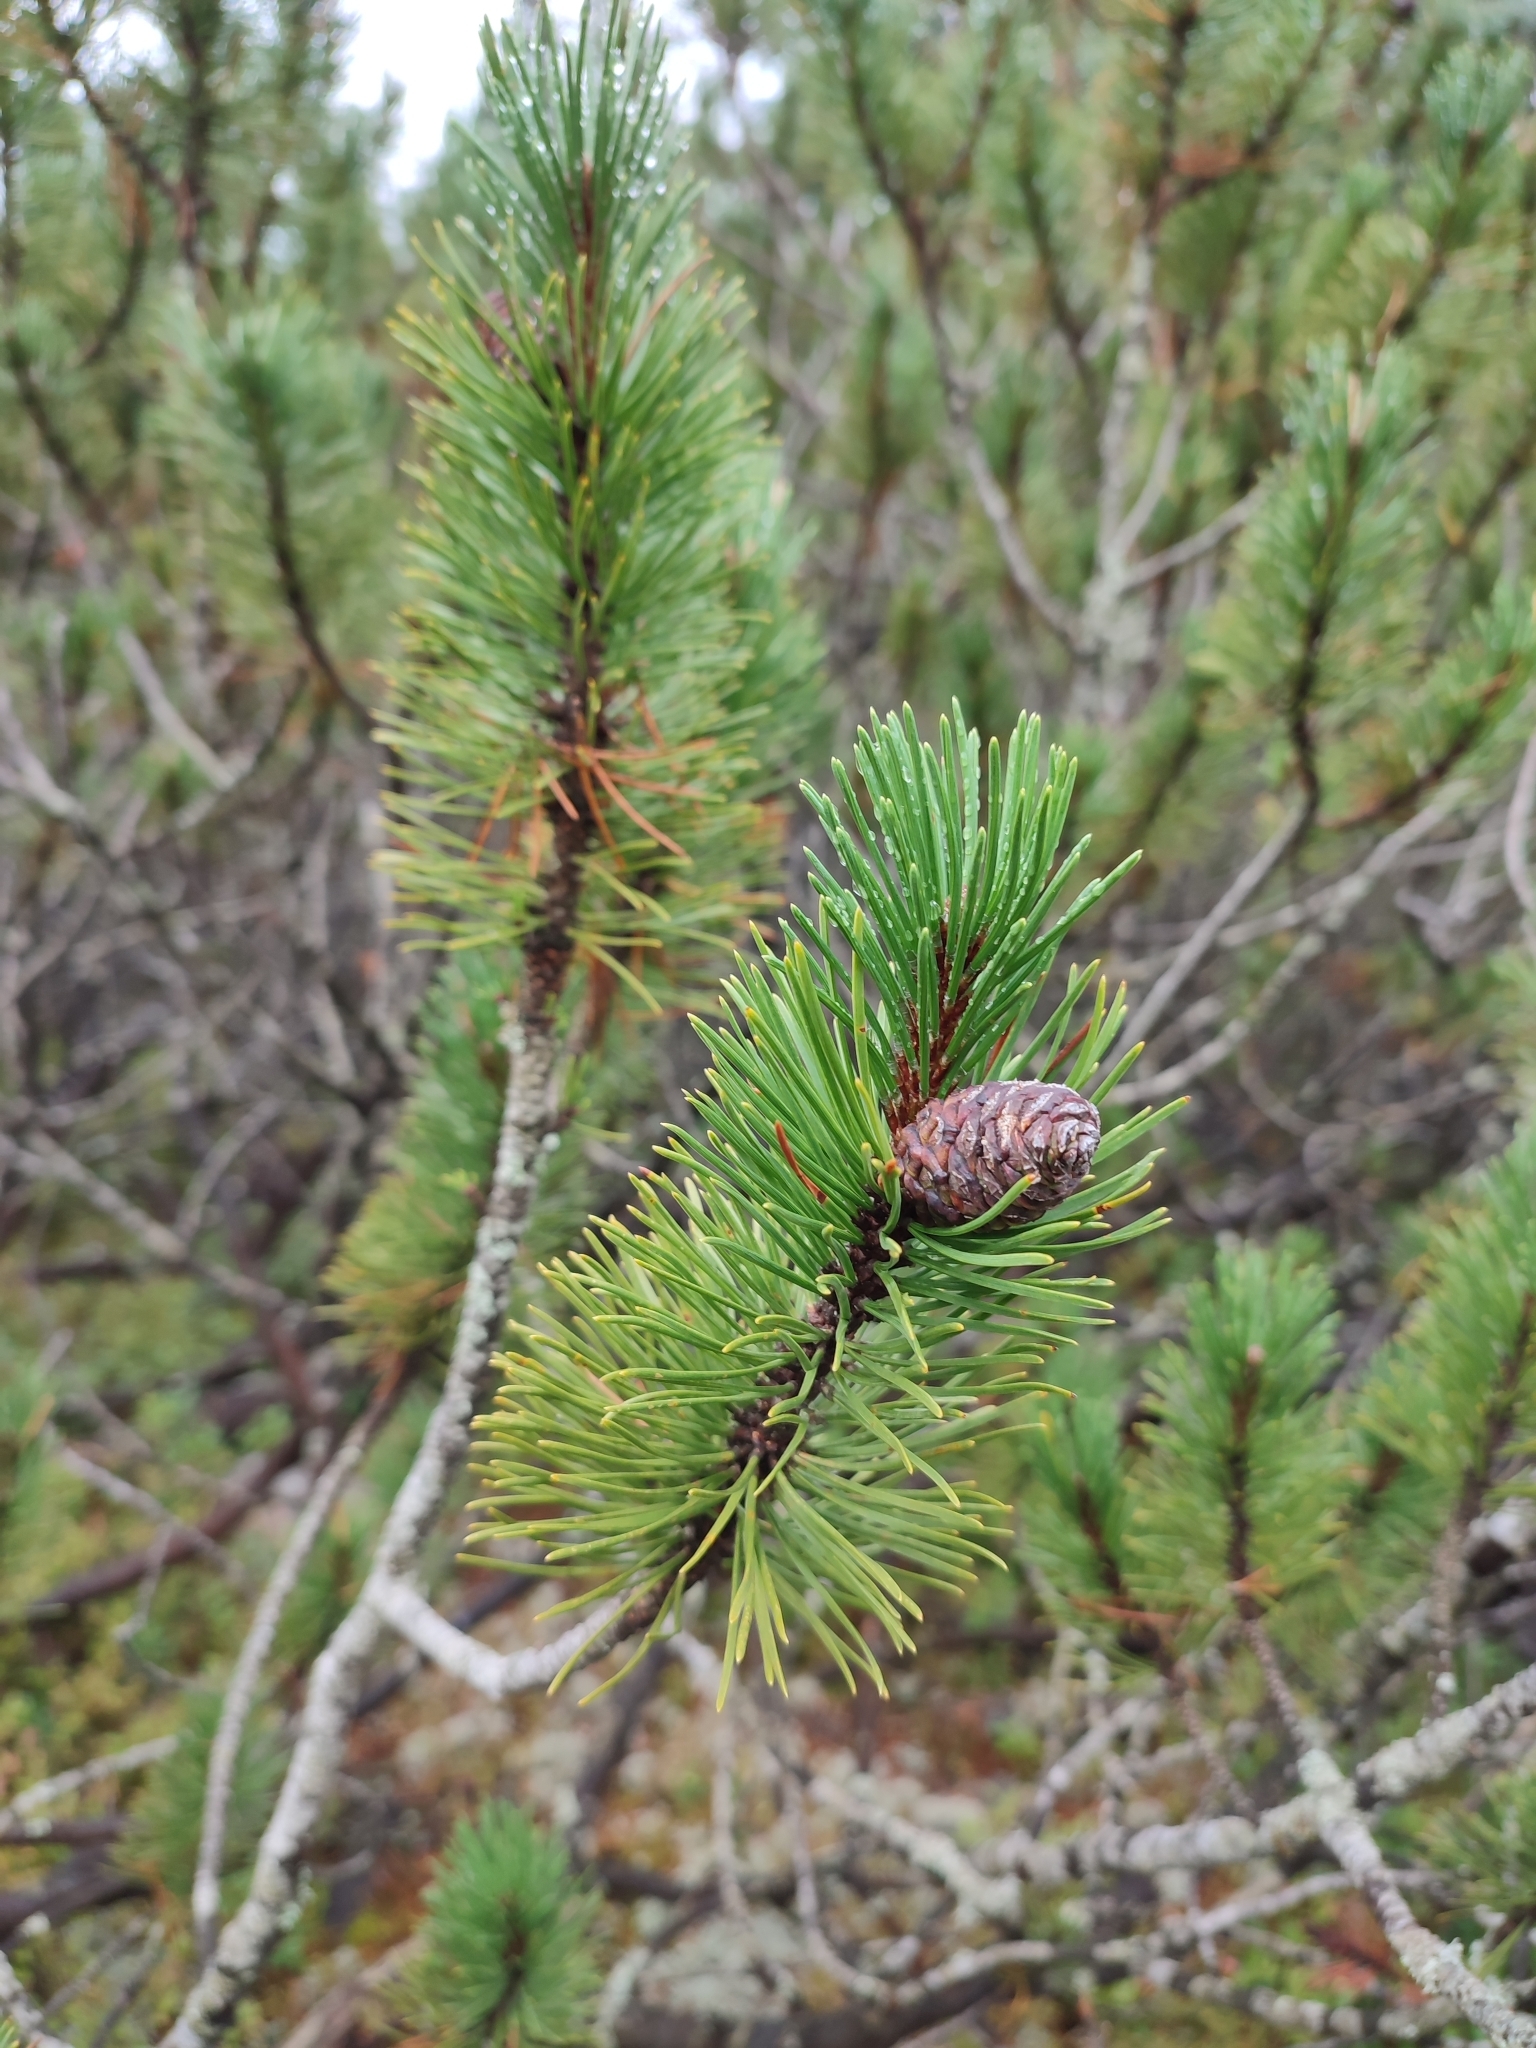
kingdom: Plantae
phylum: Tracheophyta
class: Pinopsida
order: Pinales
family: Pinaceae
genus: Pinus
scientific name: Pinus mugo
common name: Mugo pine
